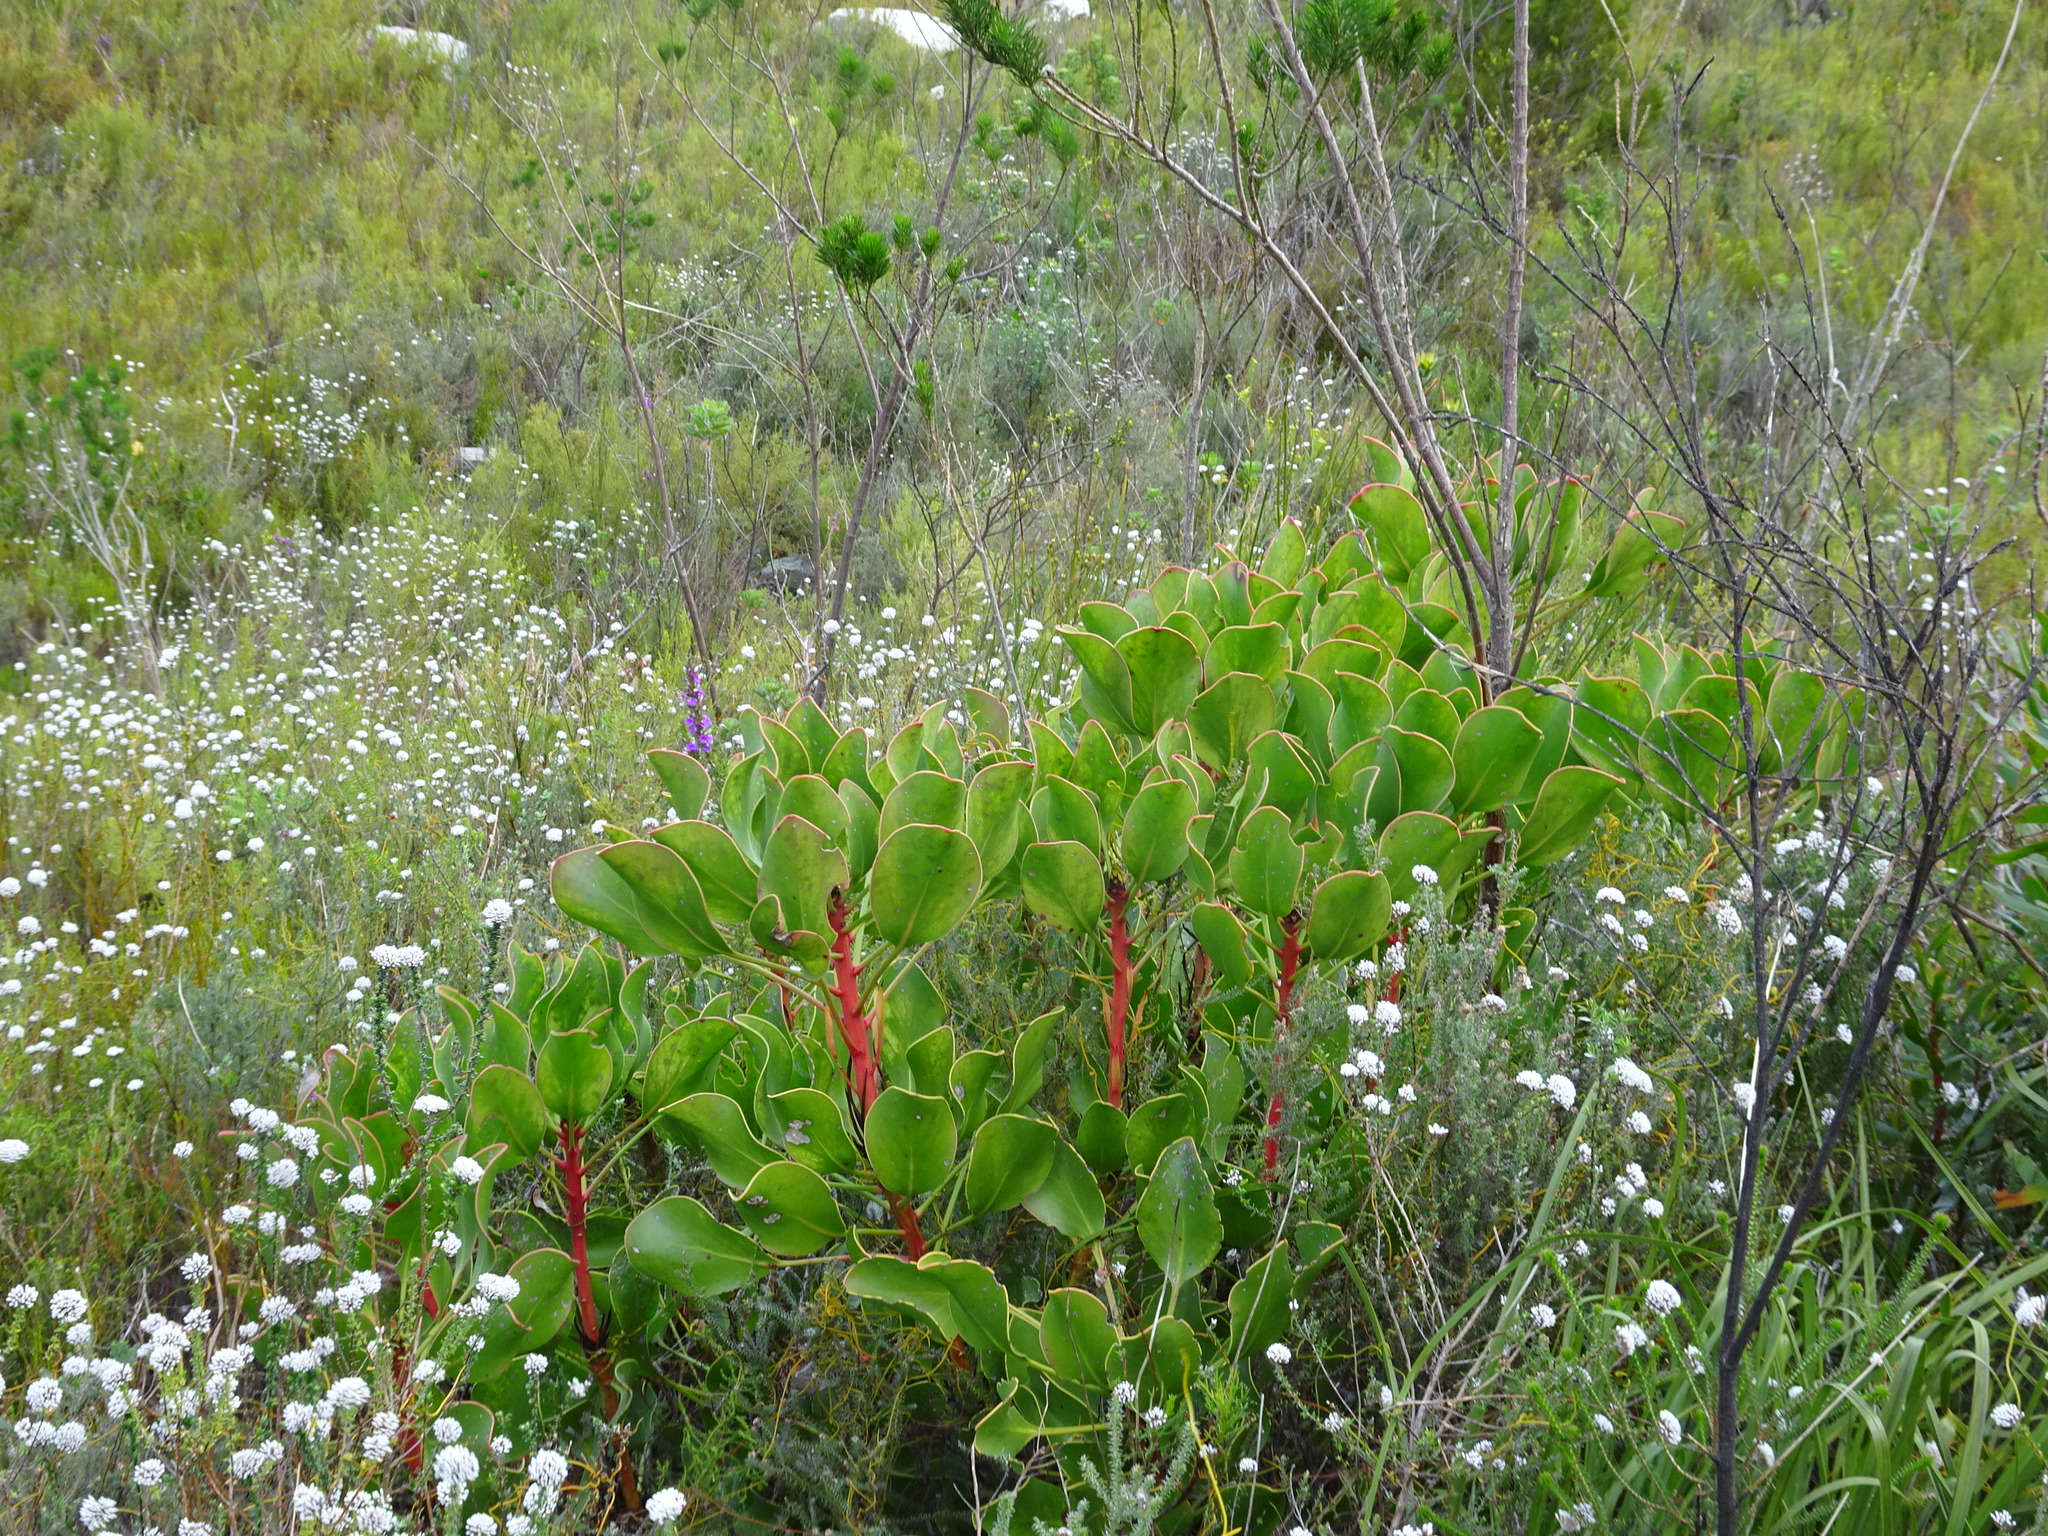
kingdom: Plantae
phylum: Tracheophyta
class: Magnoliopsida
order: Proteales
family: Proteaceae
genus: Protea
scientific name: Protea cynaroides
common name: King protea
